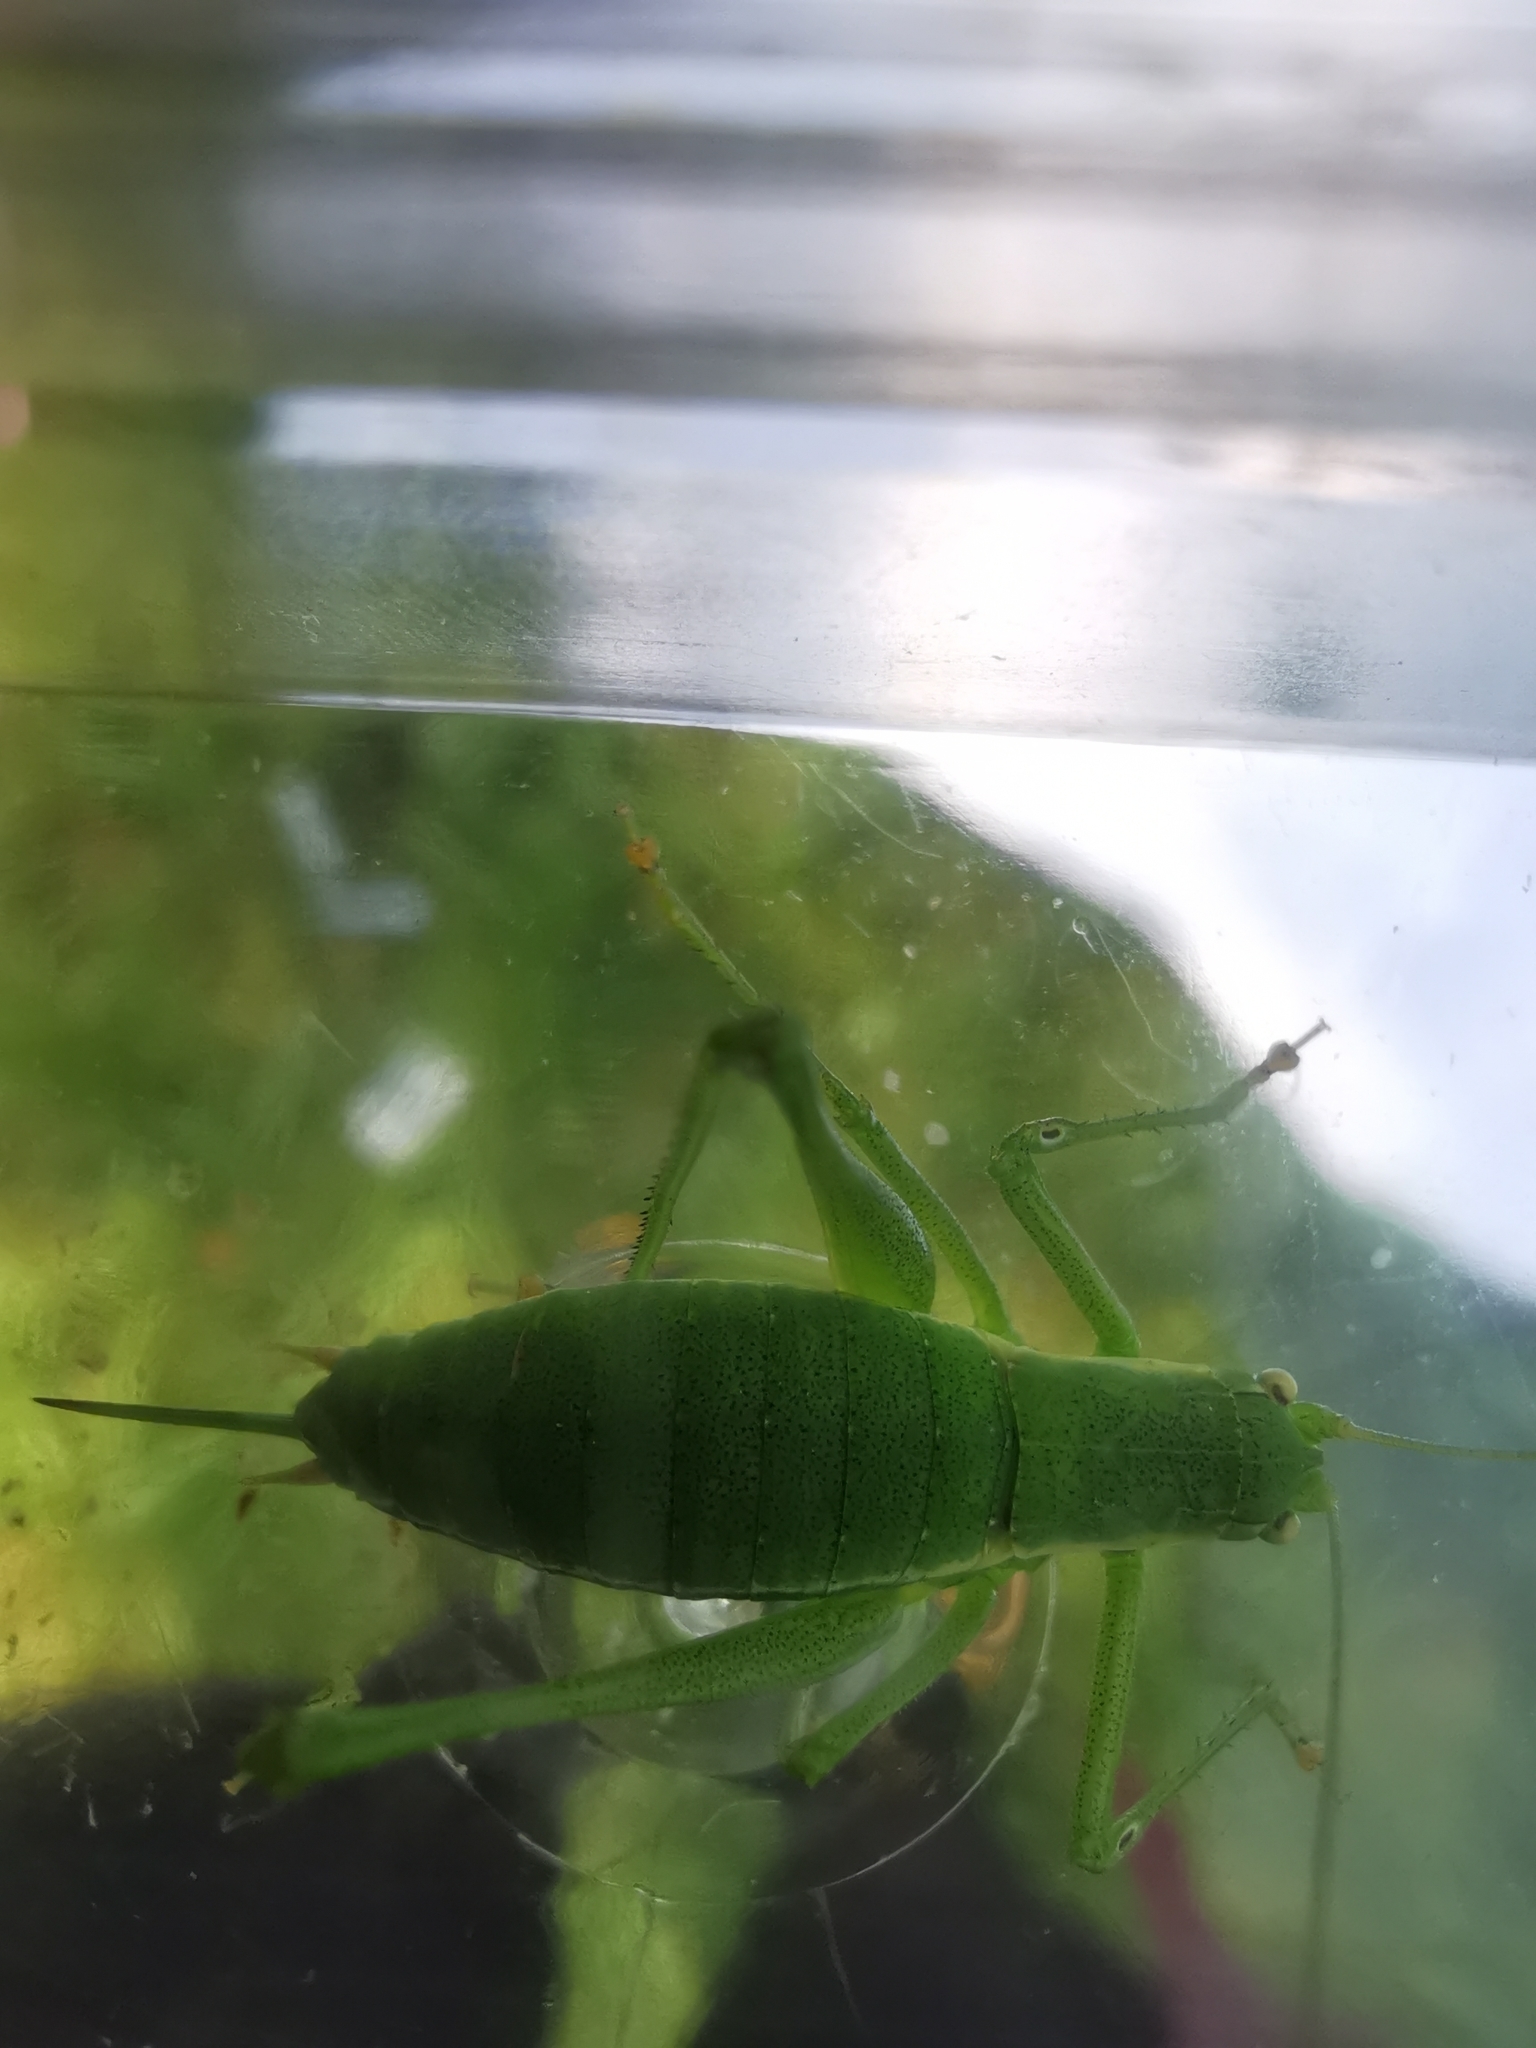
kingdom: Animalia
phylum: Arthropoda
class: Insecta
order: Orthoptera
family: Tettigoniidae
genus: Leptophyes
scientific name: Leptophyes boscii
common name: Balkan speckled bush-cricket
